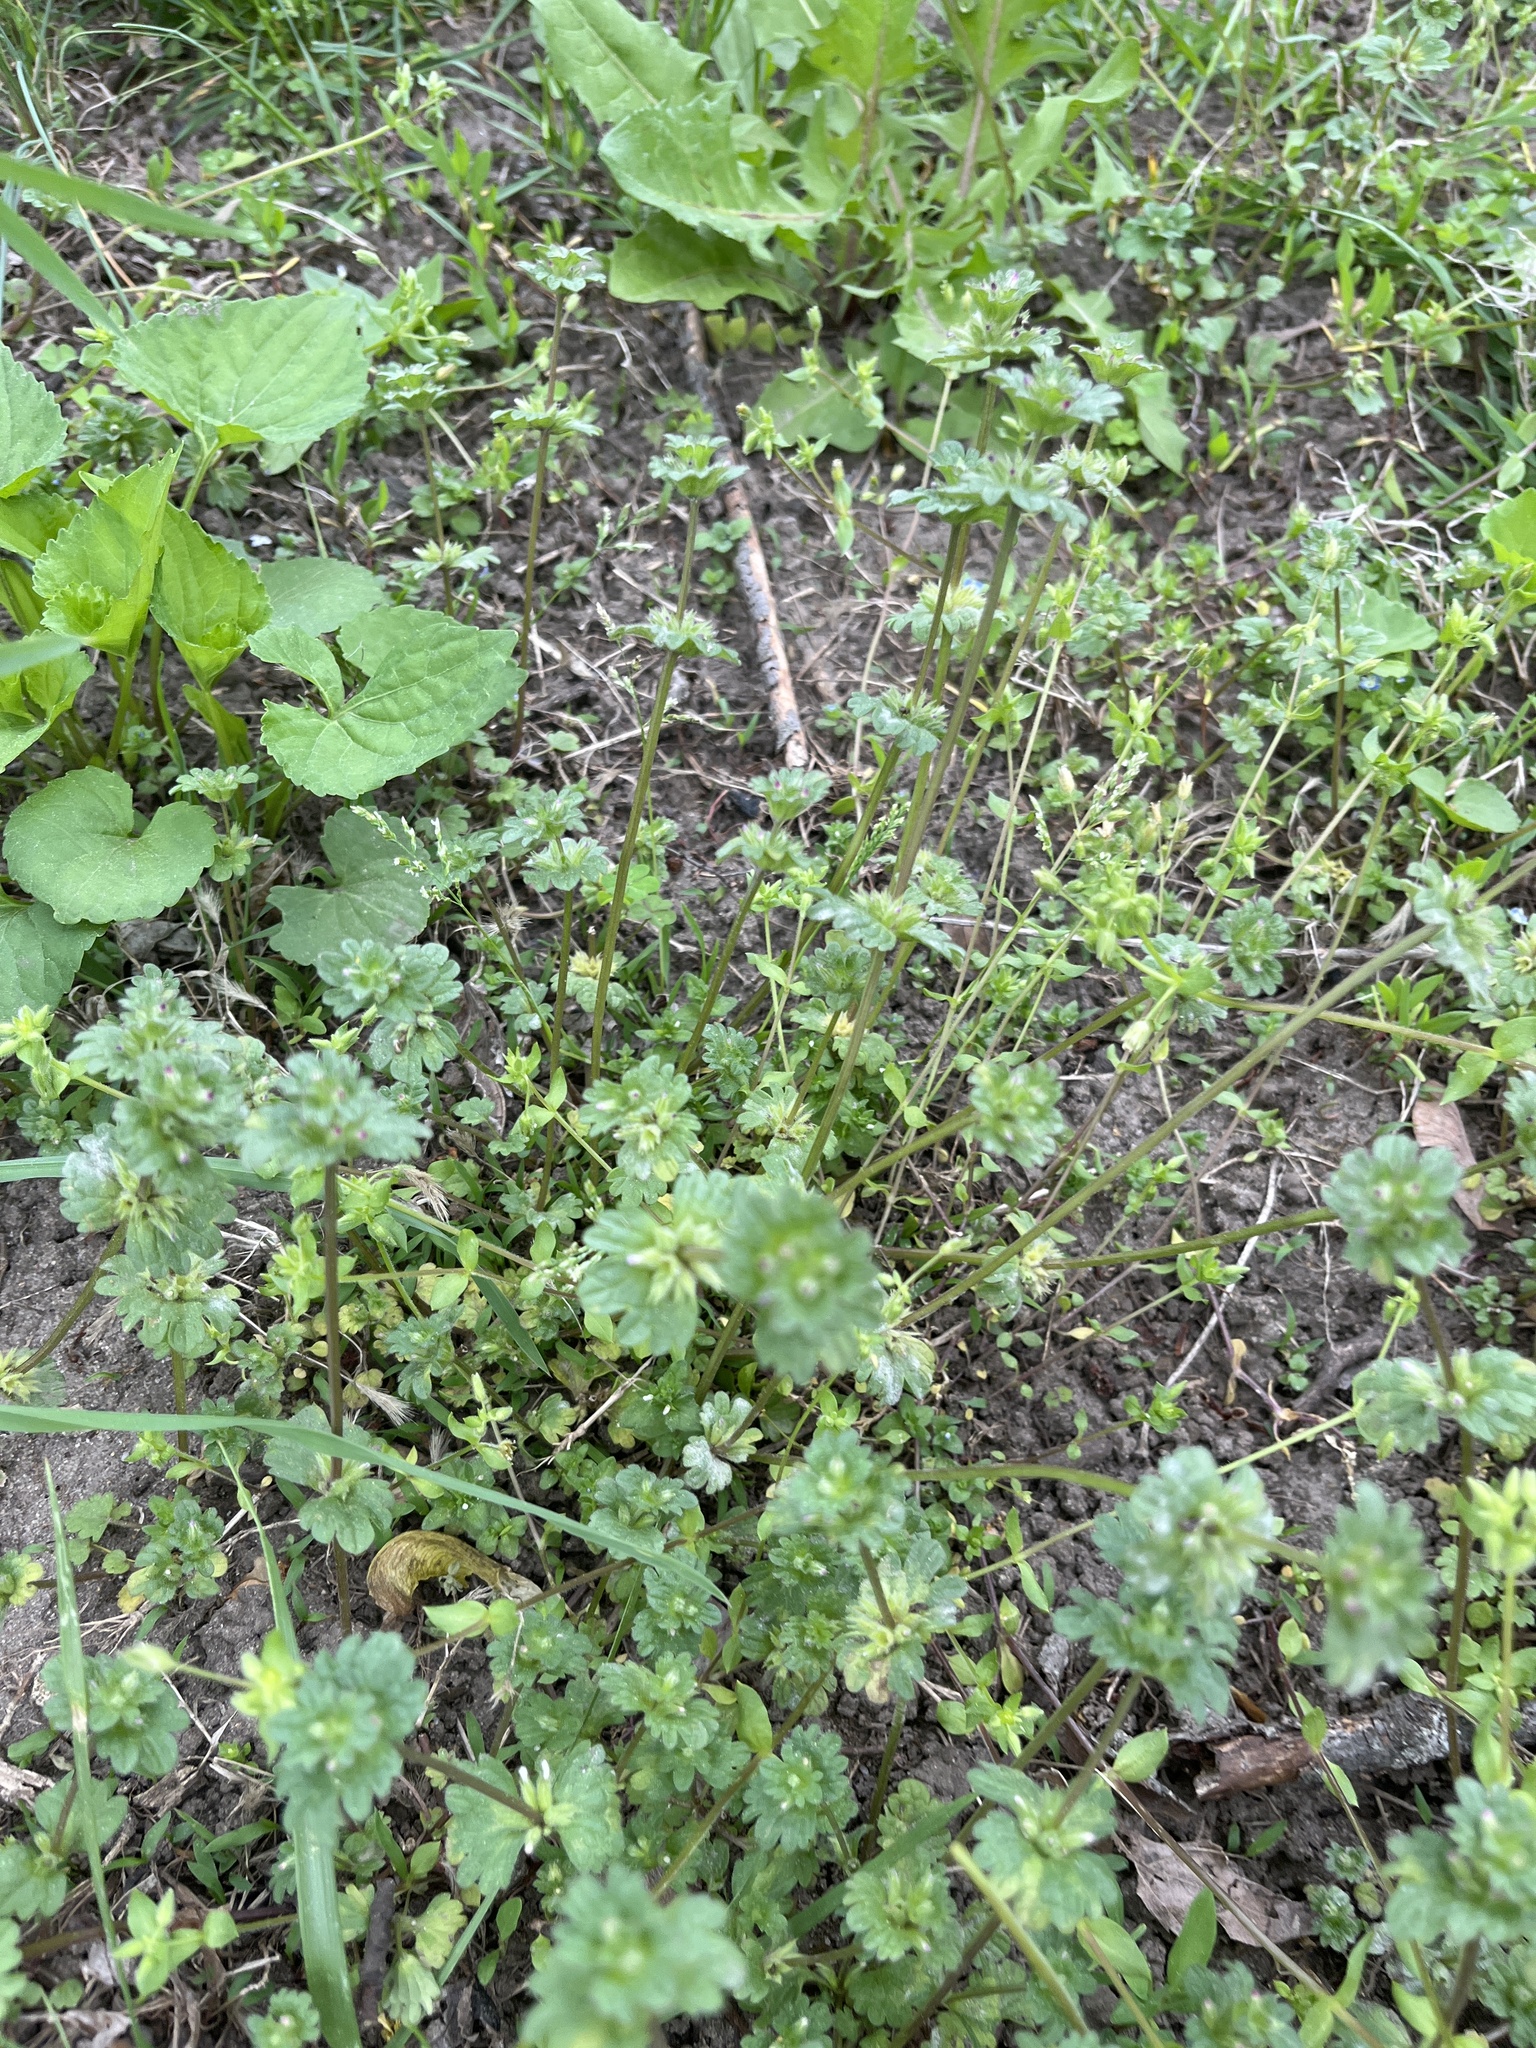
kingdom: Plantae
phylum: Tracheophyta
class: Magnoliopsida
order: Lamiales
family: Lamiaceae
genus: Lamium
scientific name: Lamium amplexicaule
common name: Henbit dead-nettle
